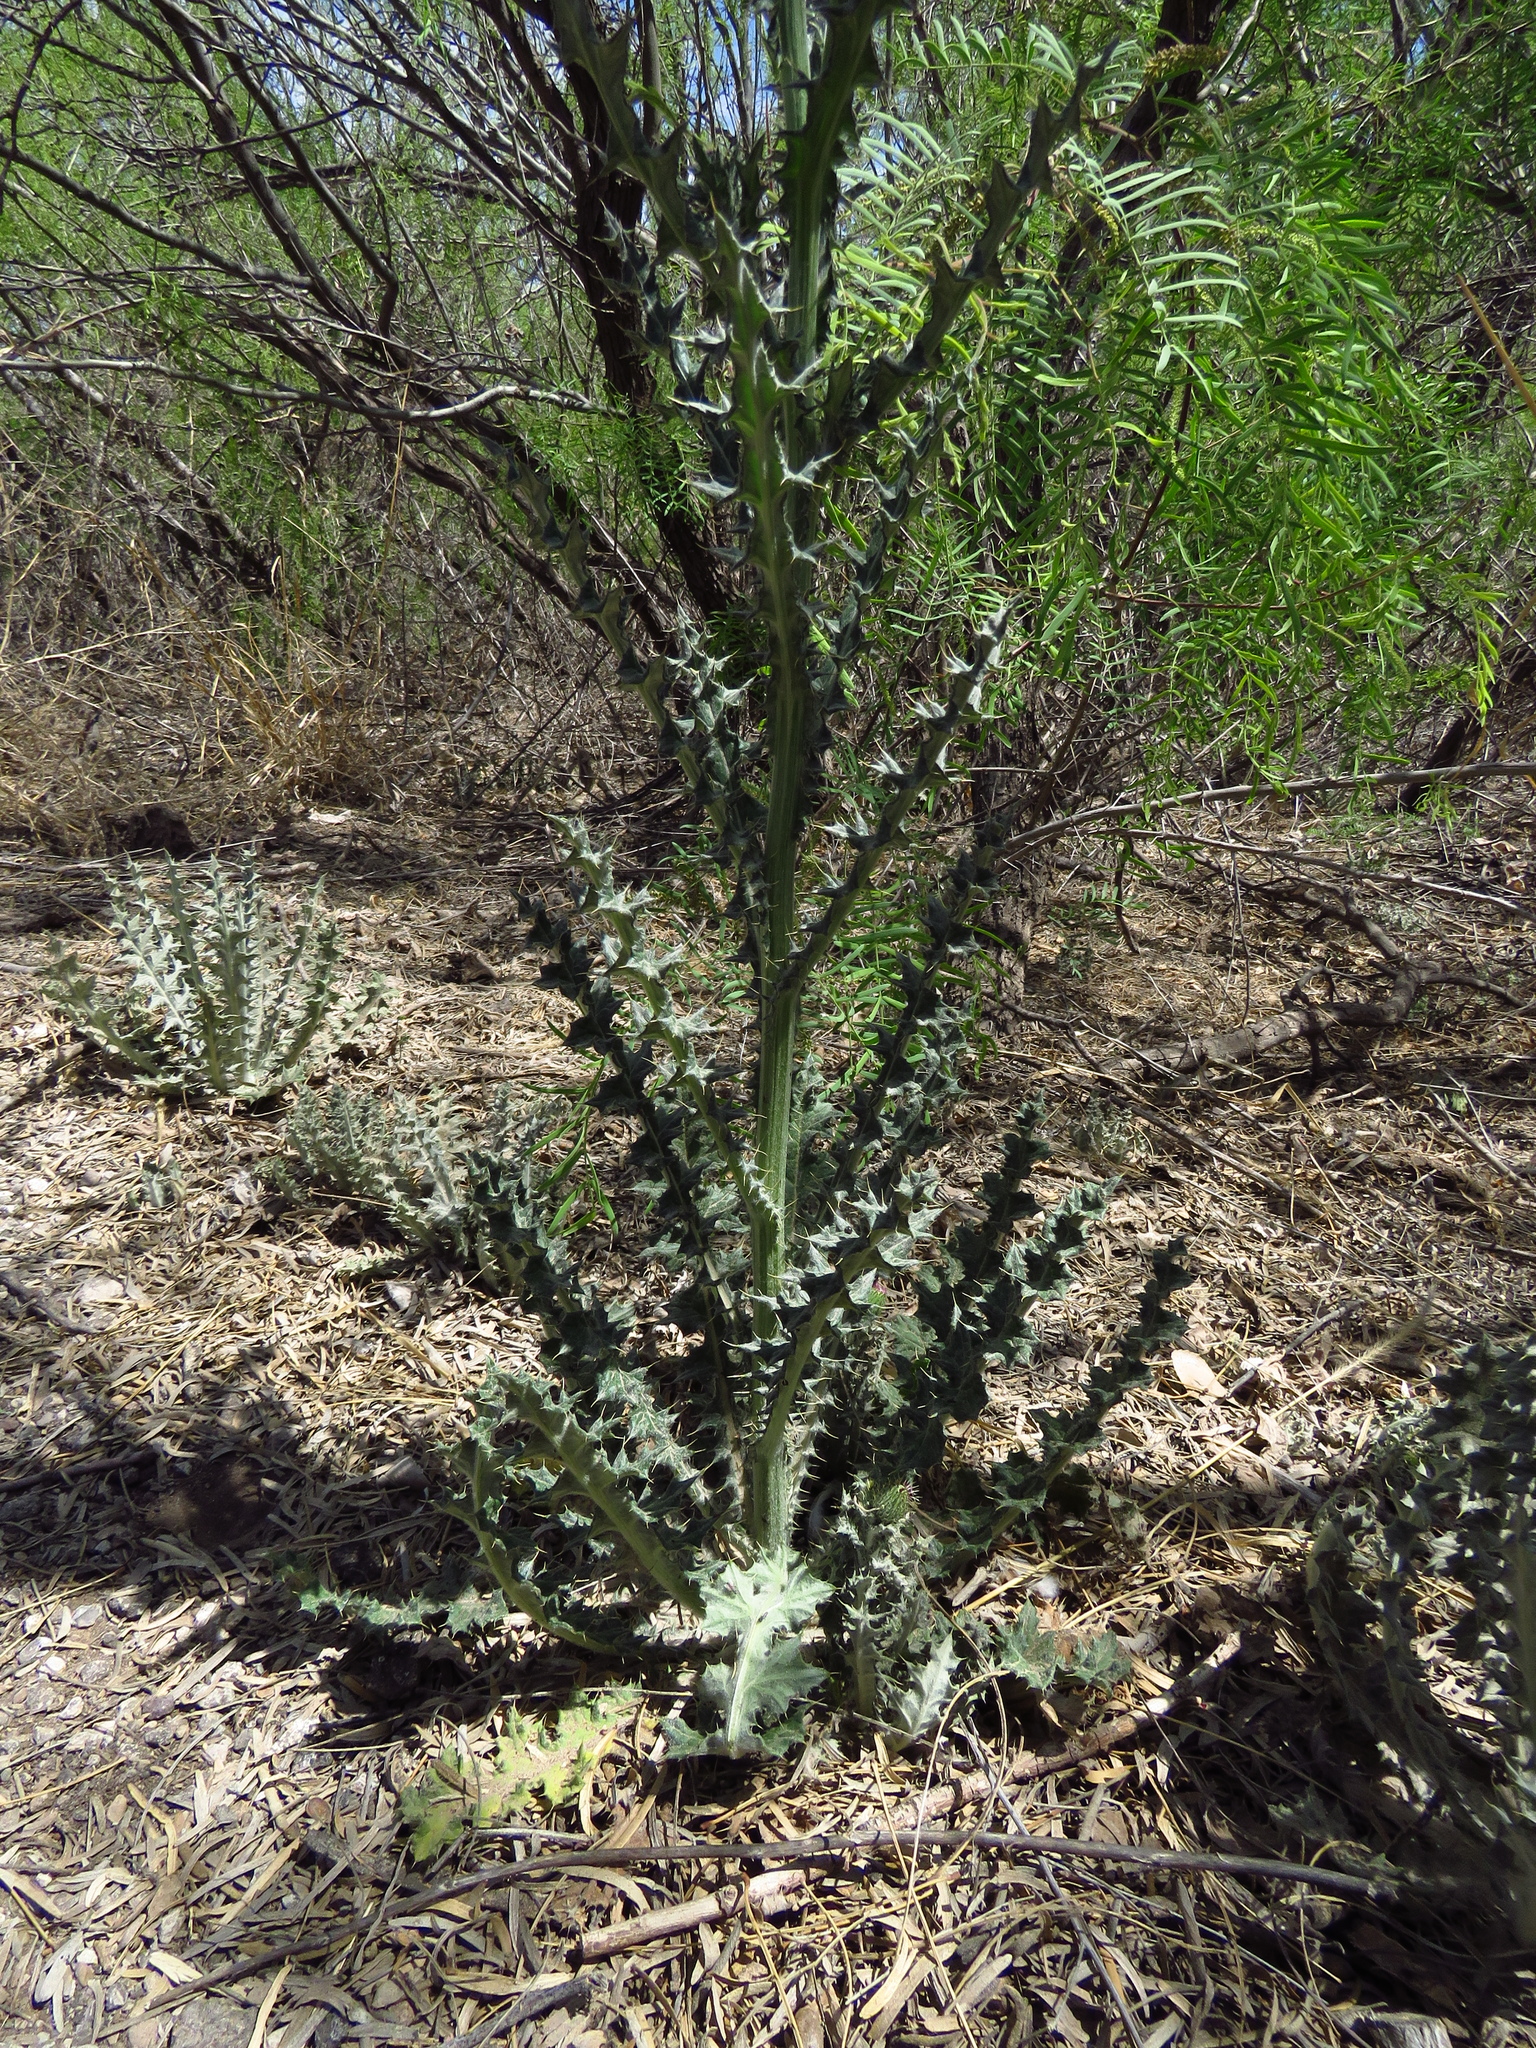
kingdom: Plantae
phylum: Tracheophyta
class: Magnoliopsida
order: Asterales
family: Asteraceae
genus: Cirsium
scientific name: Cirsium texanum
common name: Texas purple thistle
